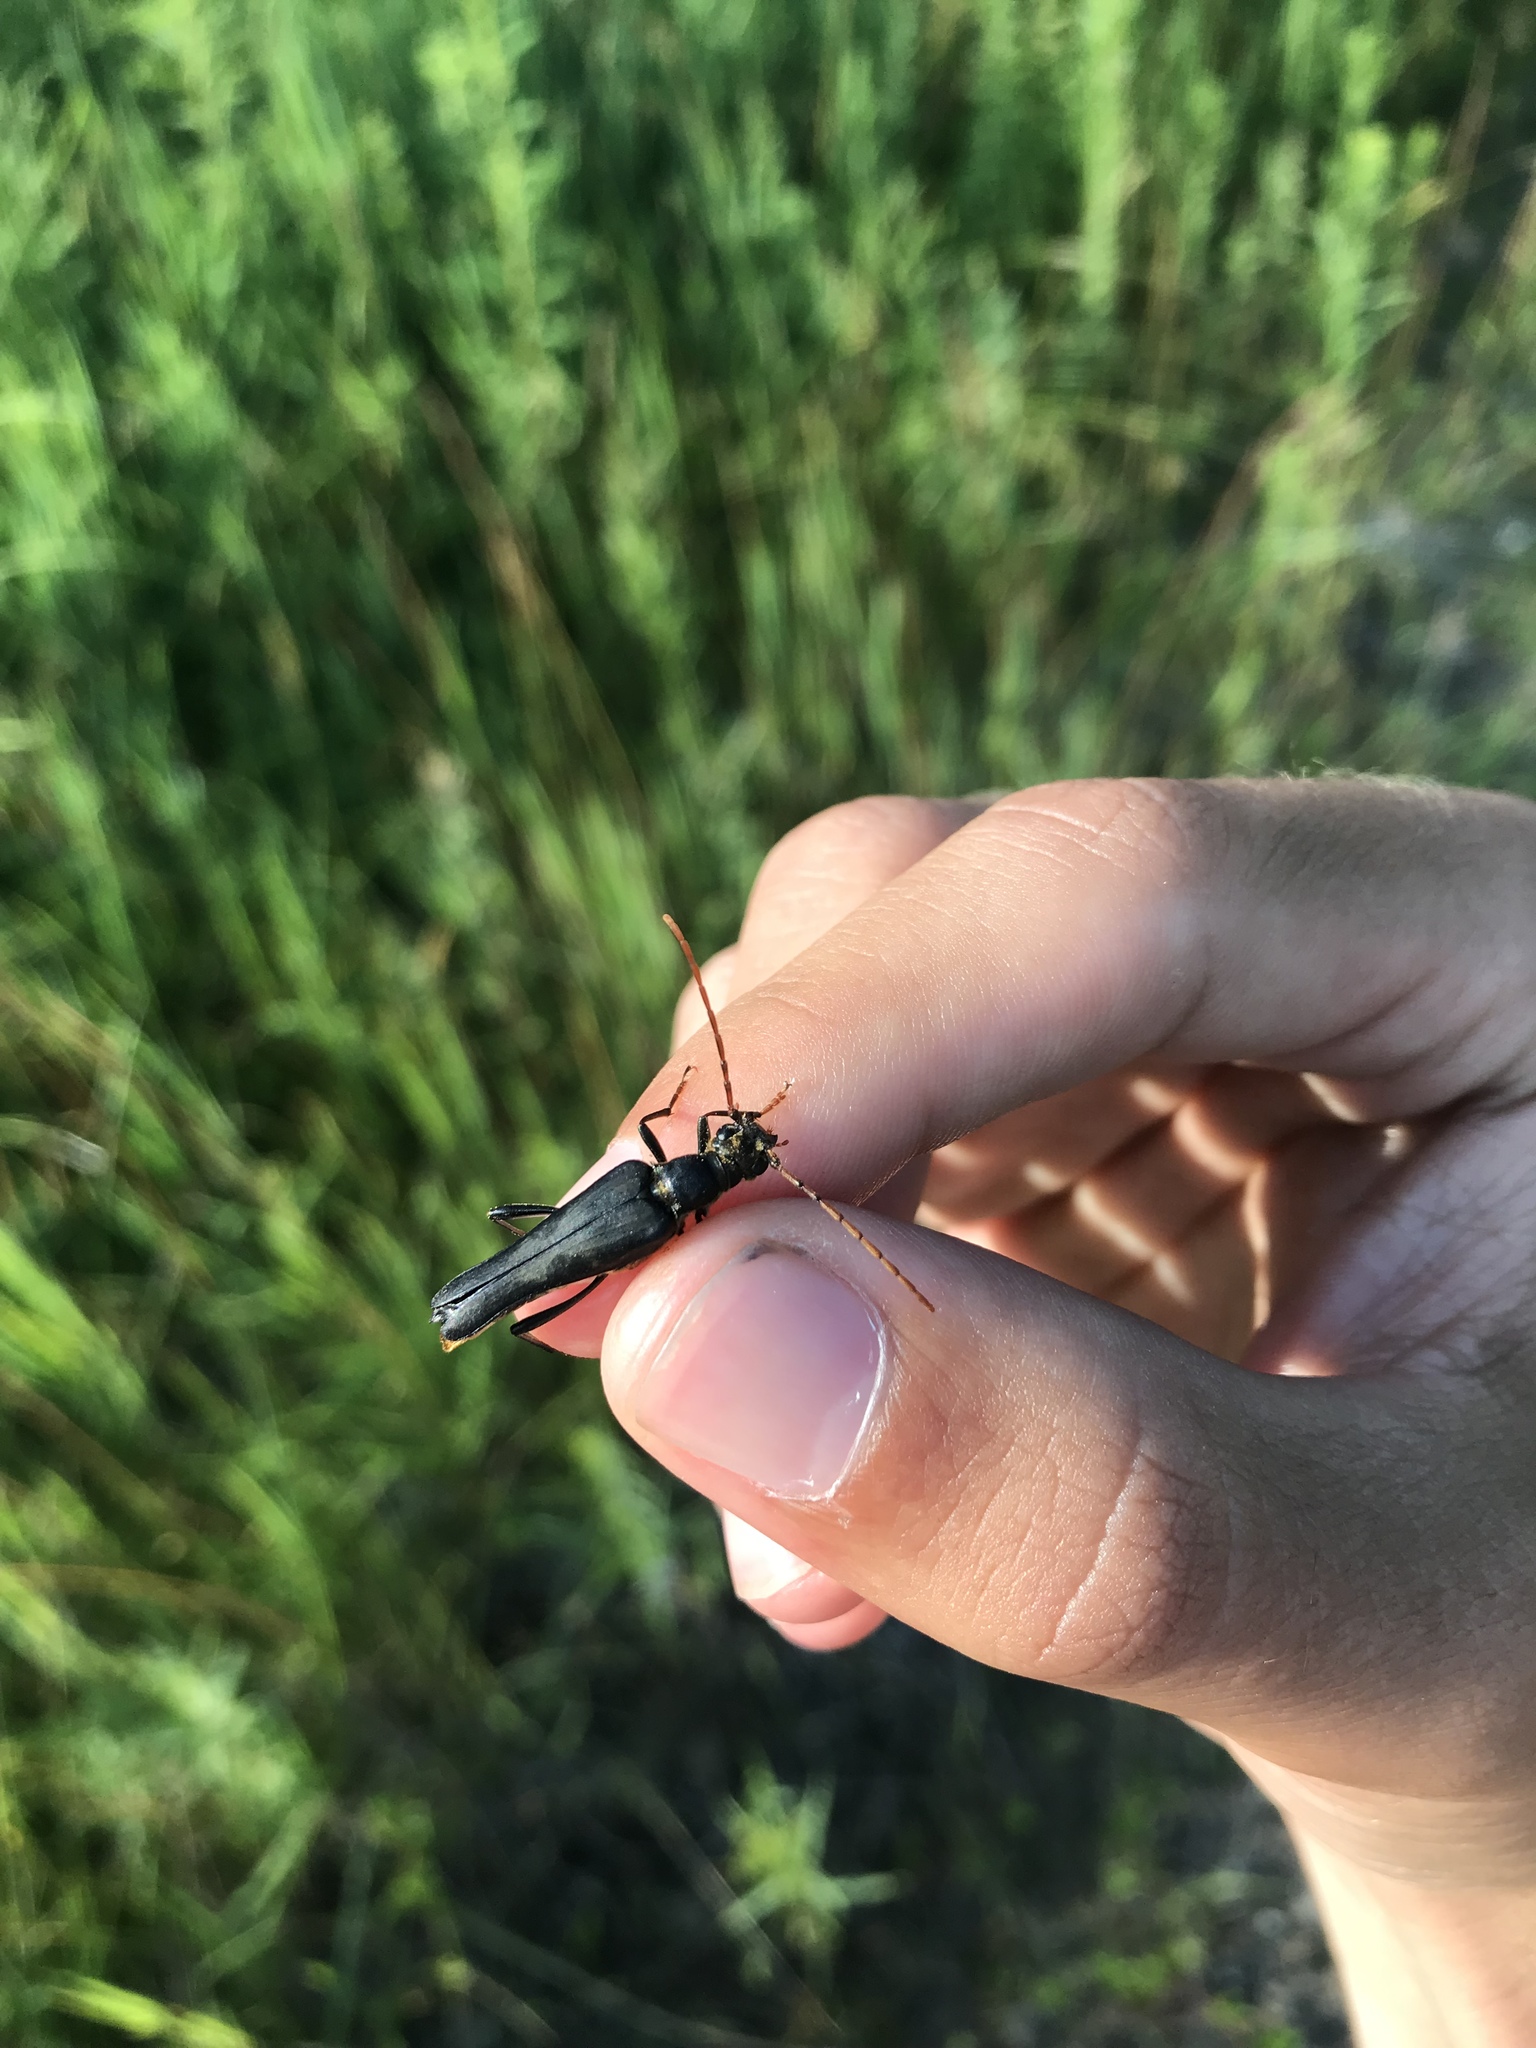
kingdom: Animalia
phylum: Arthropoda
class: Insecta
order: Coleoptera
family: Cerambycidae
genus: Bellamira
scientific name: Bellamira scalaris
